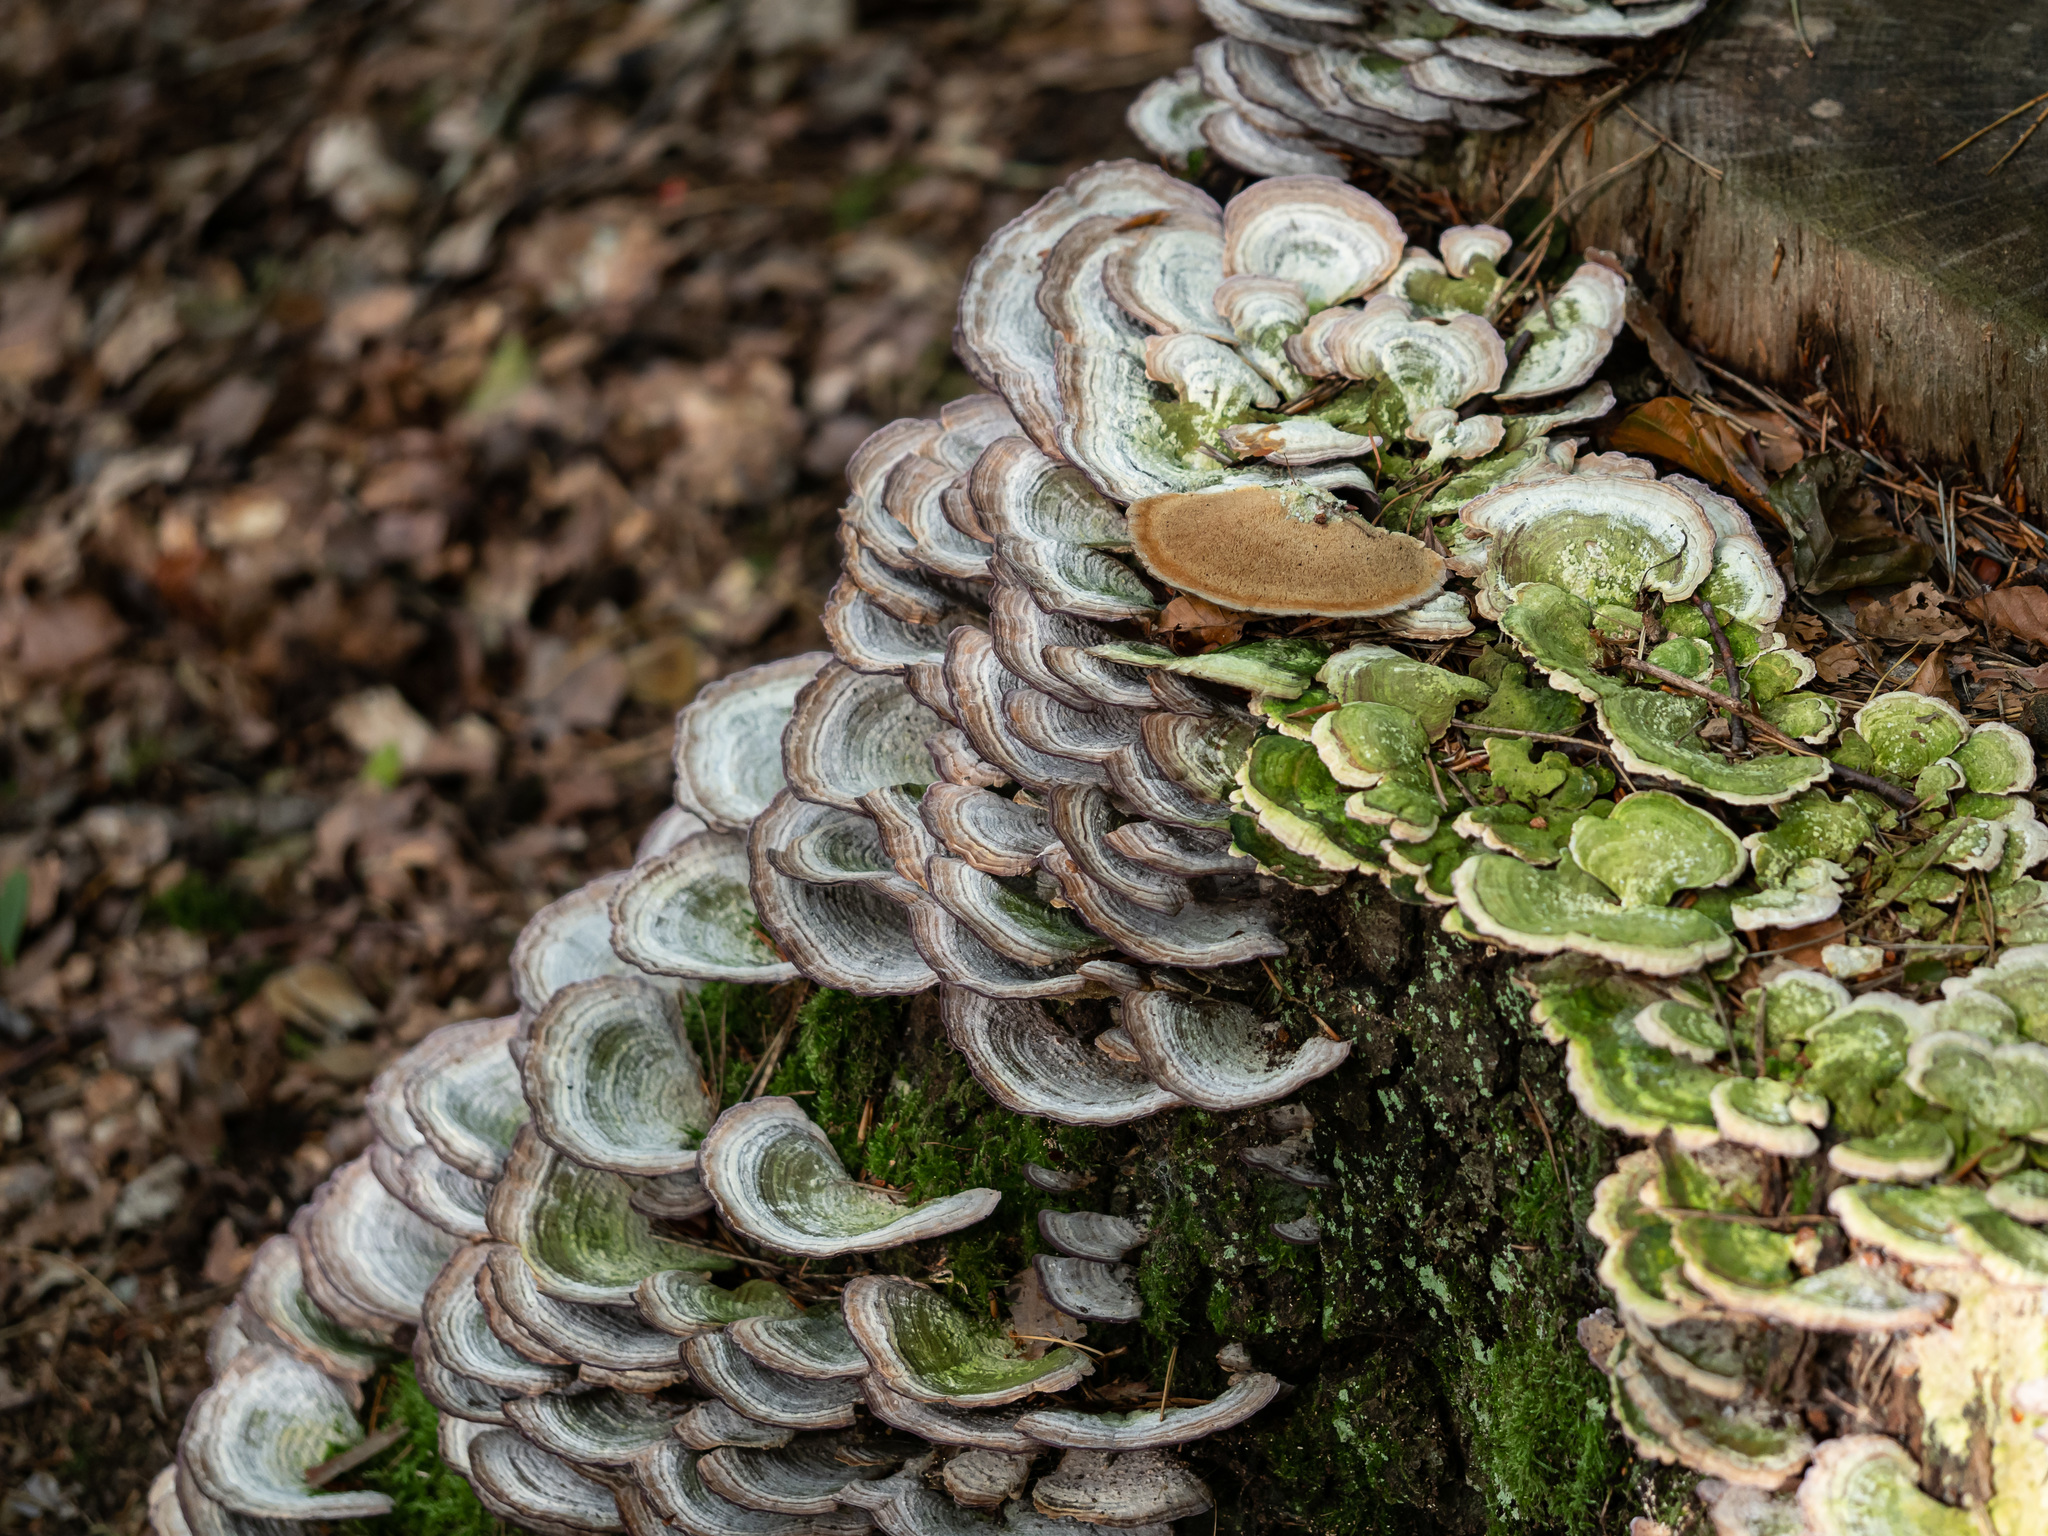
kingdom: Fungi
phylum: Basidiomycota
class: Agaricomycetes
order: Hymenochaetales
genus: Trichaptum
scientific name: Trichaptum biforme
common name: Violet-toothed polypore
